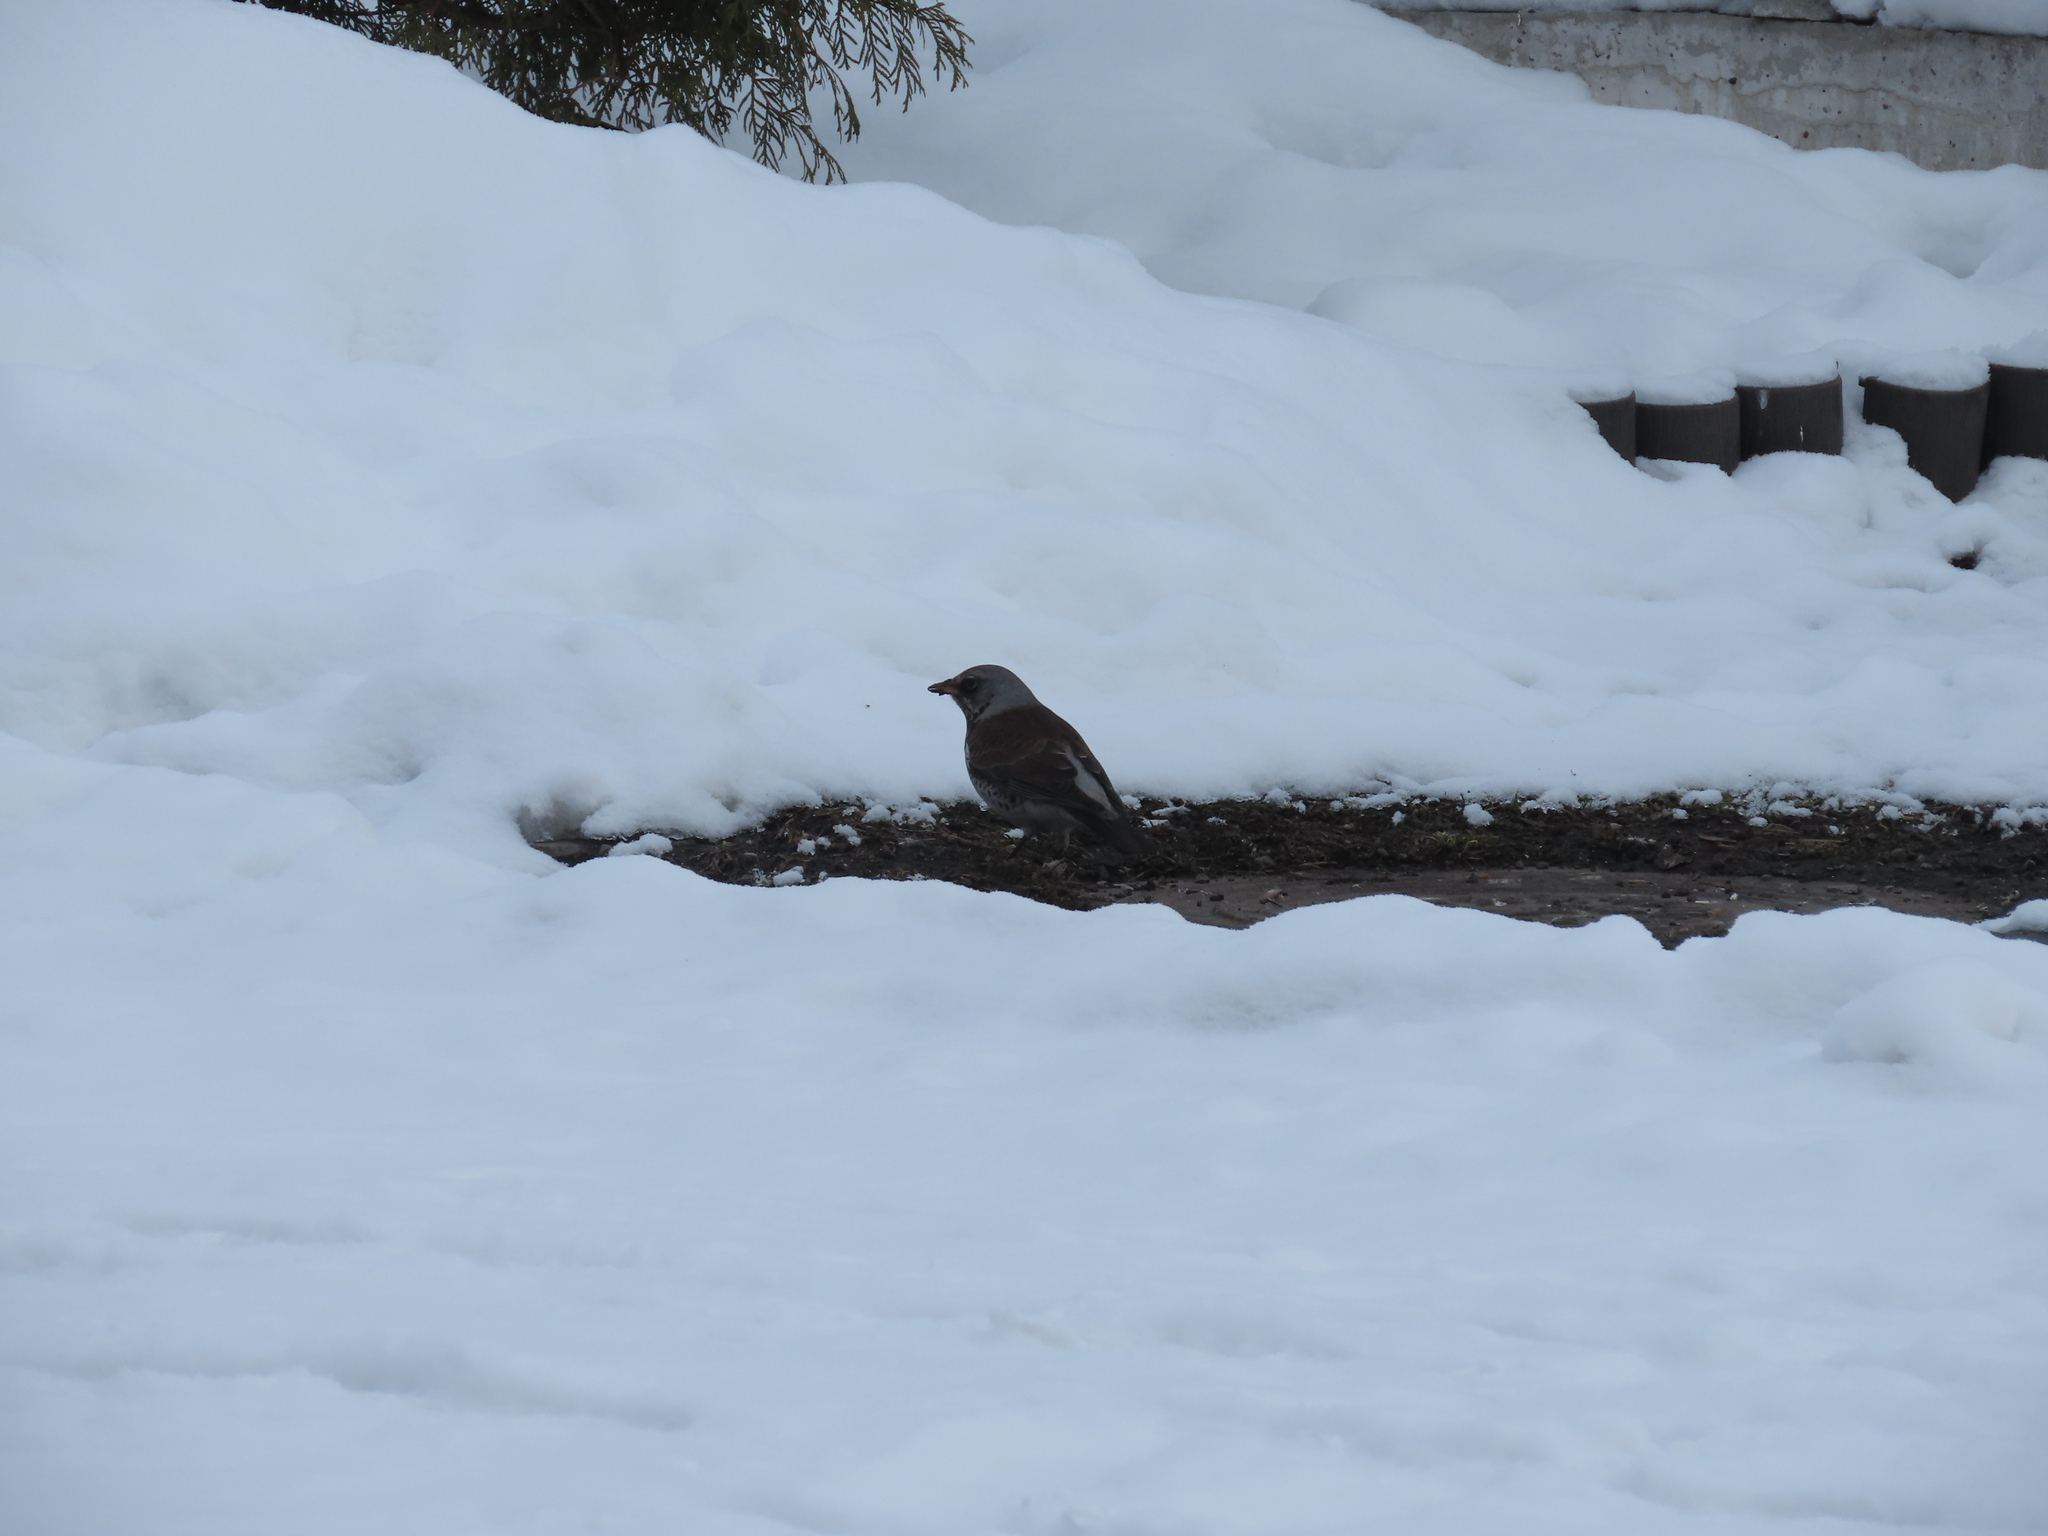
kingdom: Animalia
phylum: Chordata
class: Aves
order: Passeriformes
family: Turdidae
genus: Turdus
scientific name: Turdus pilaris
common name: Fieldfare
